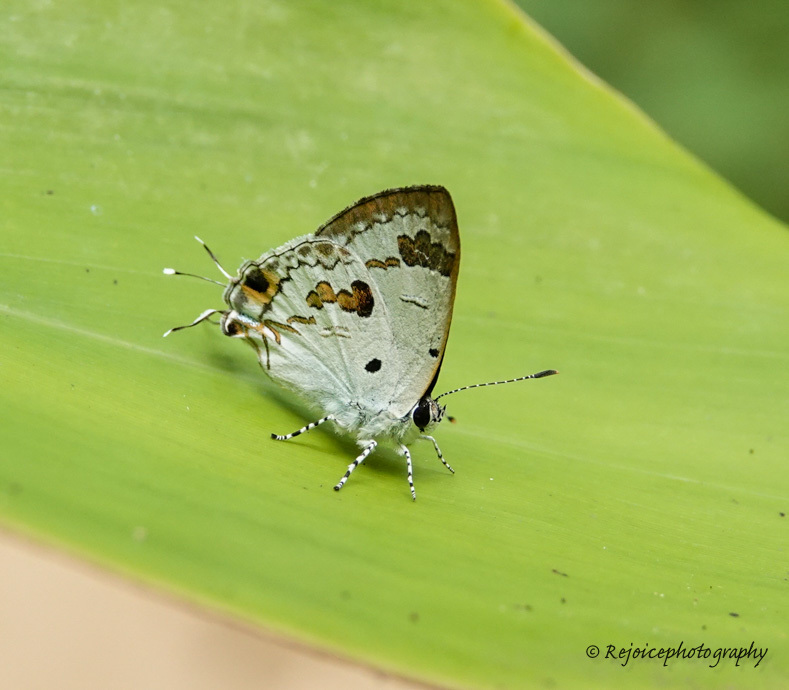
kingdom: Animalia
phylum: Arthropoda
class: Insecta
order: Lepidoptera
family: Lycaenidae
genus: Chliaria
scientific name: Chliaria othona
